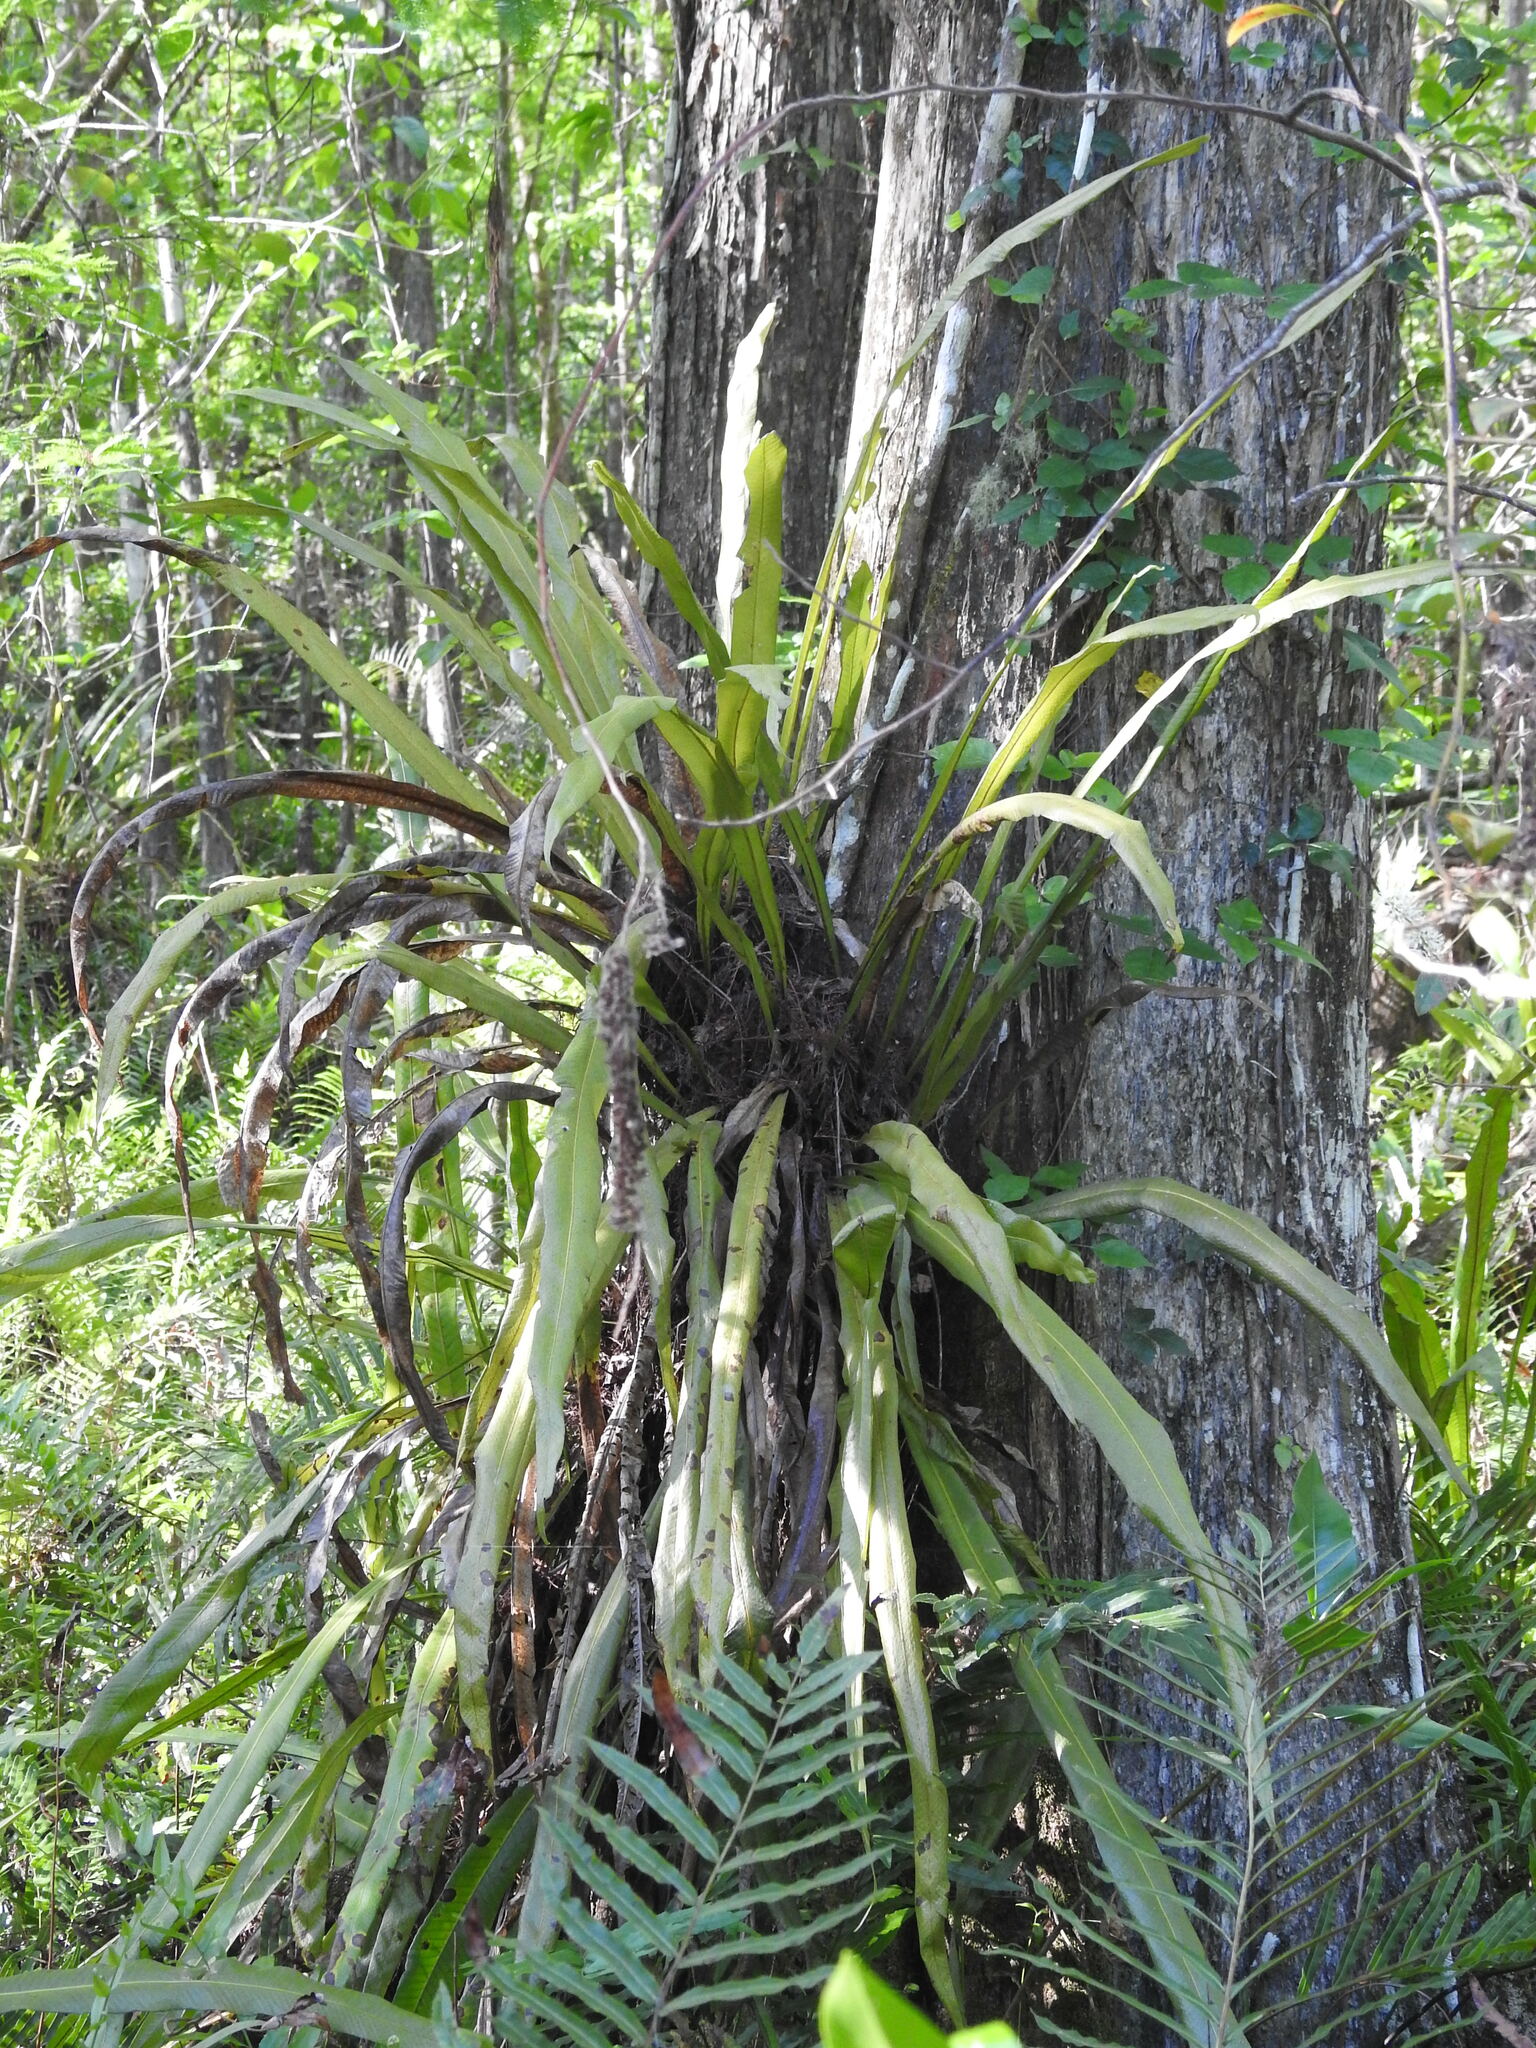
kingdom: Plantae
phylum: Tracheophyta
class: Polypodiopsida
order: Polypodiales
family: Polypodiaceae
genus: Campyloneurum
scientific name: Campyloneurum phyllitidis
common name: Cow-tongue fern
